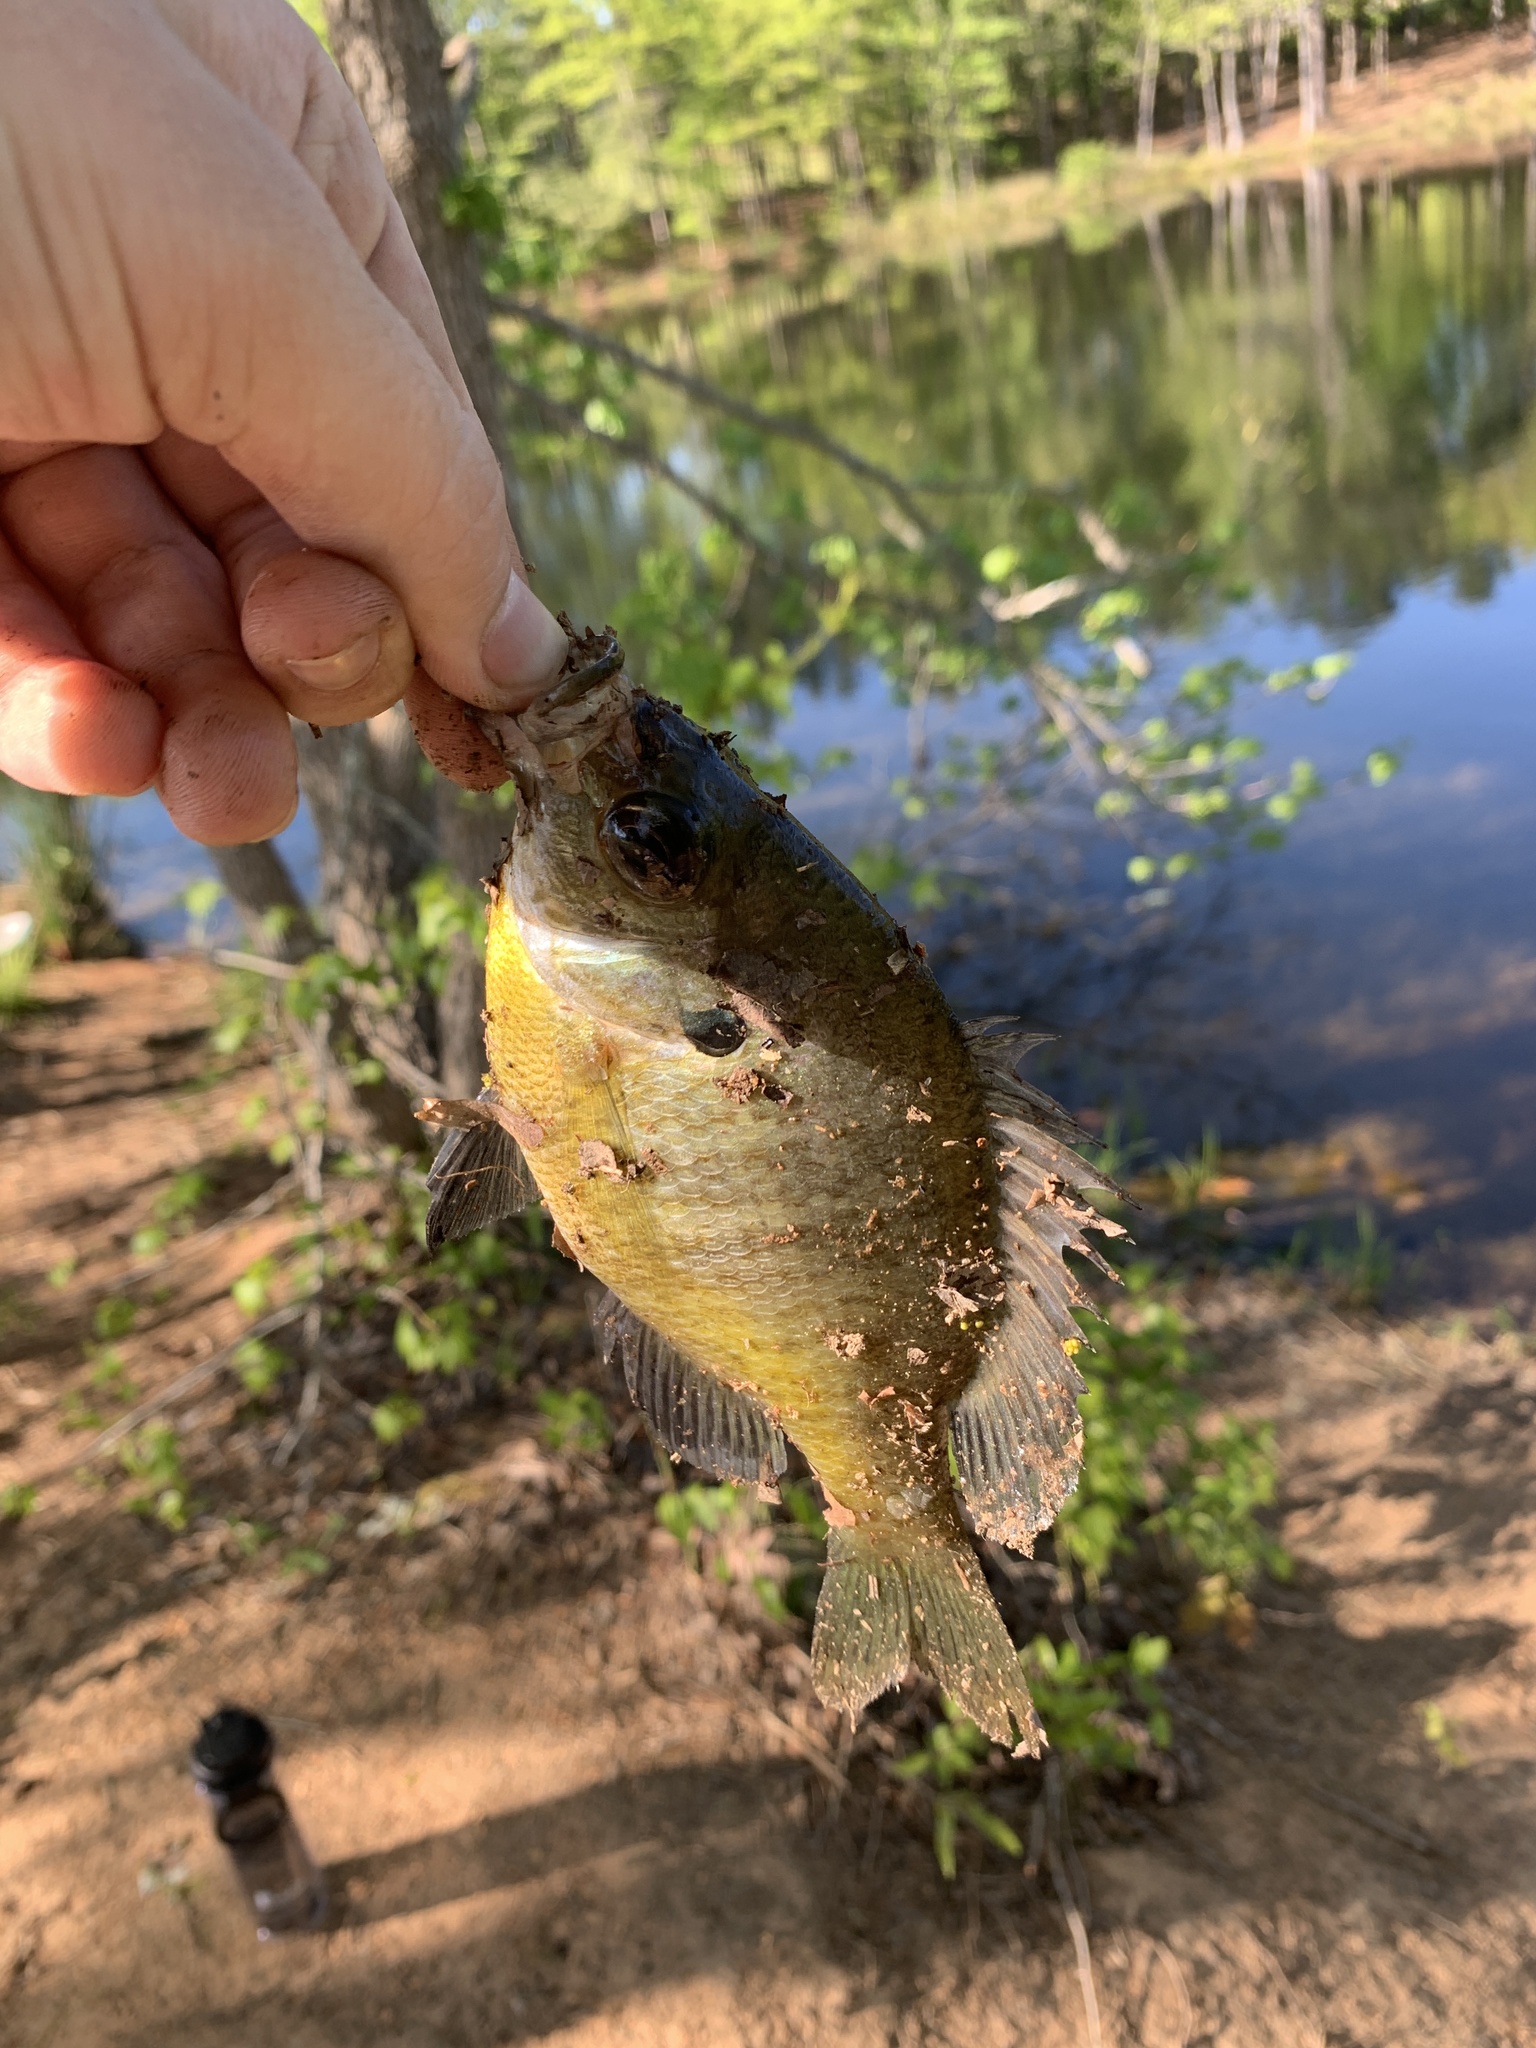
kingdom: Animalia
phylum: Chordata
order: Perciformes
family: Centrarchidae
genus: Lepomis
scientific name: Lepomis macrochirus
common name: Bluegill
